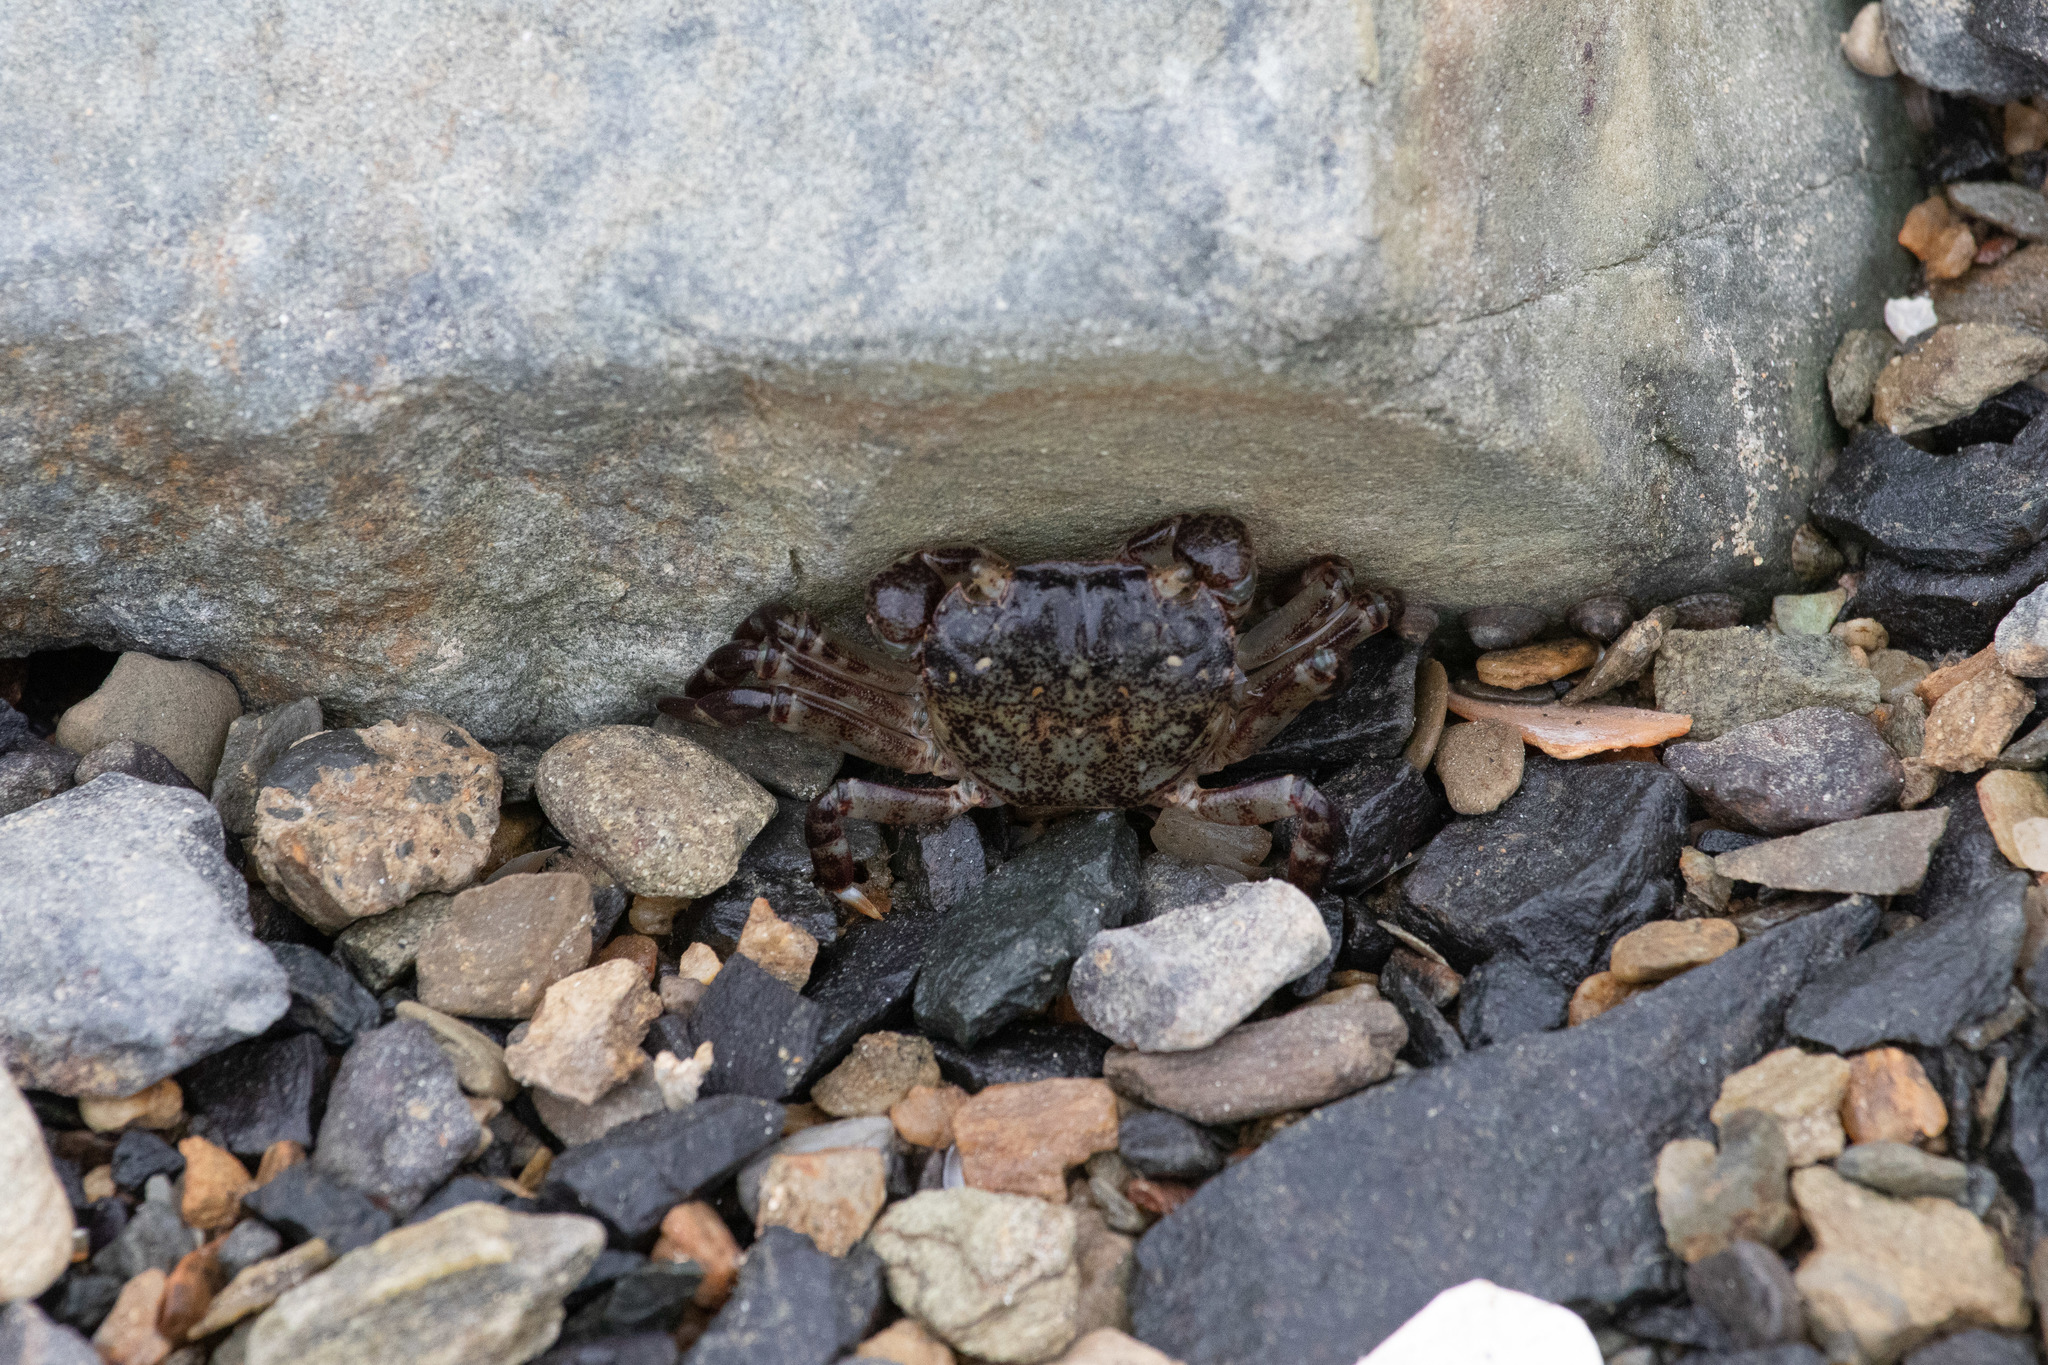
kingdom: Animalia
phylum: Arthropoda
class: Malacostraca
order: Decapoda
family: Varunidae
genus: Hemigrapsus
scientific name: Hemigrapsus sexdentatus
